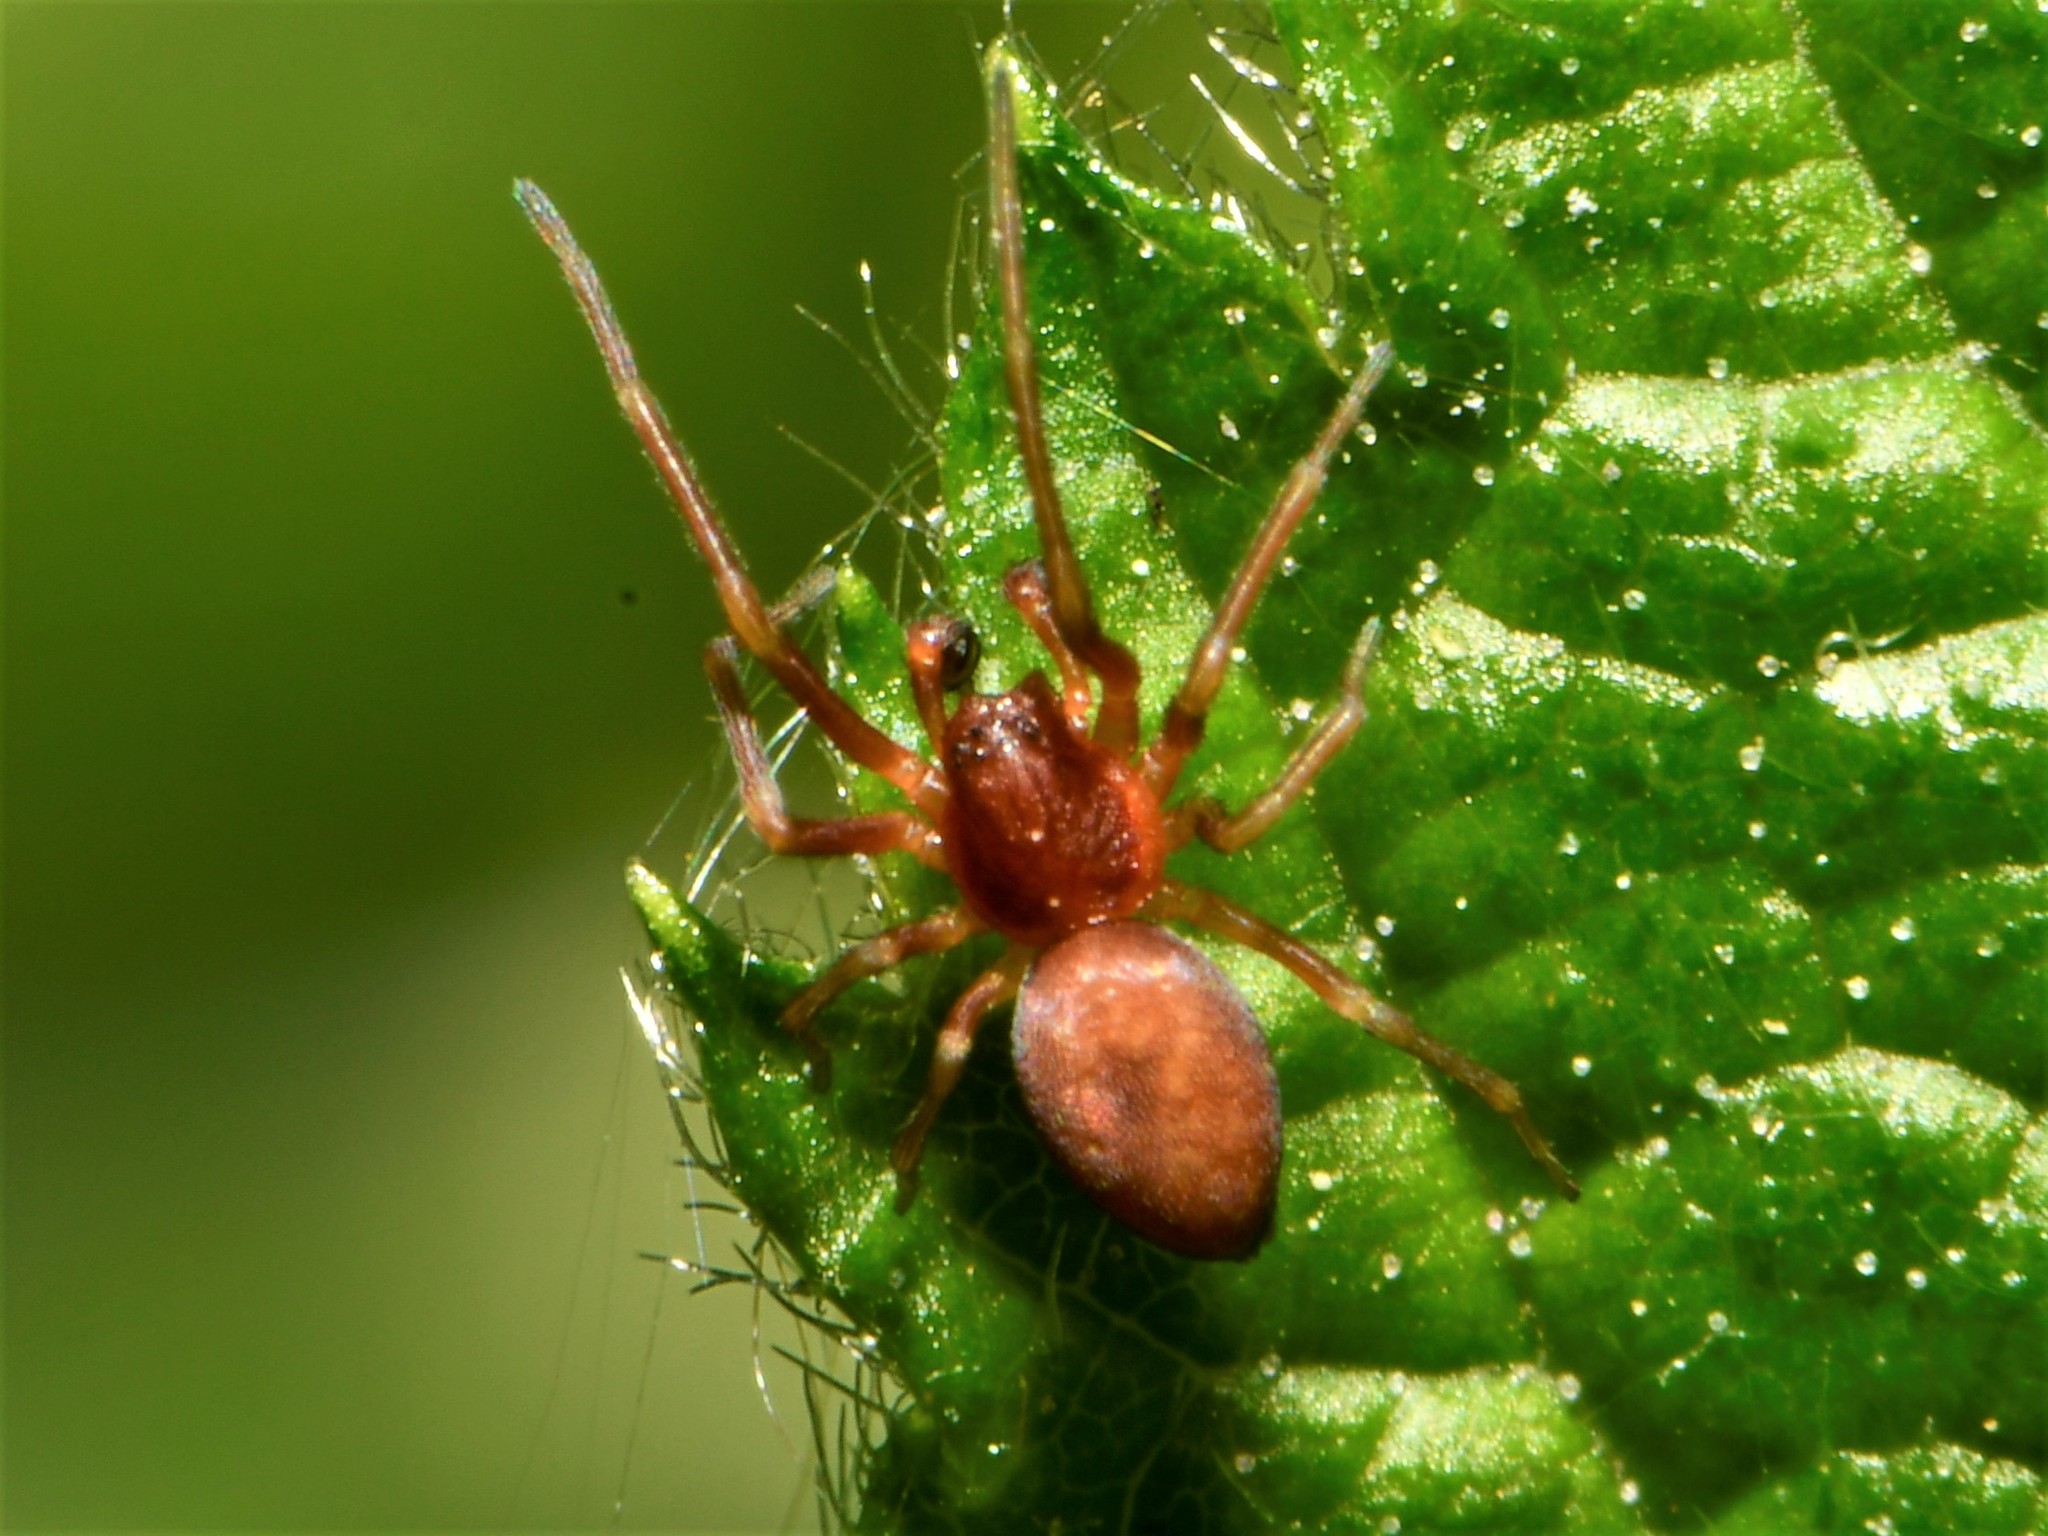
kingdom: Animalia
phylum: Arthropoda
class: Arachnida
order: Araneae
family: Dictynidae
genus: Nigma
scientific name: Nigma flavescens
